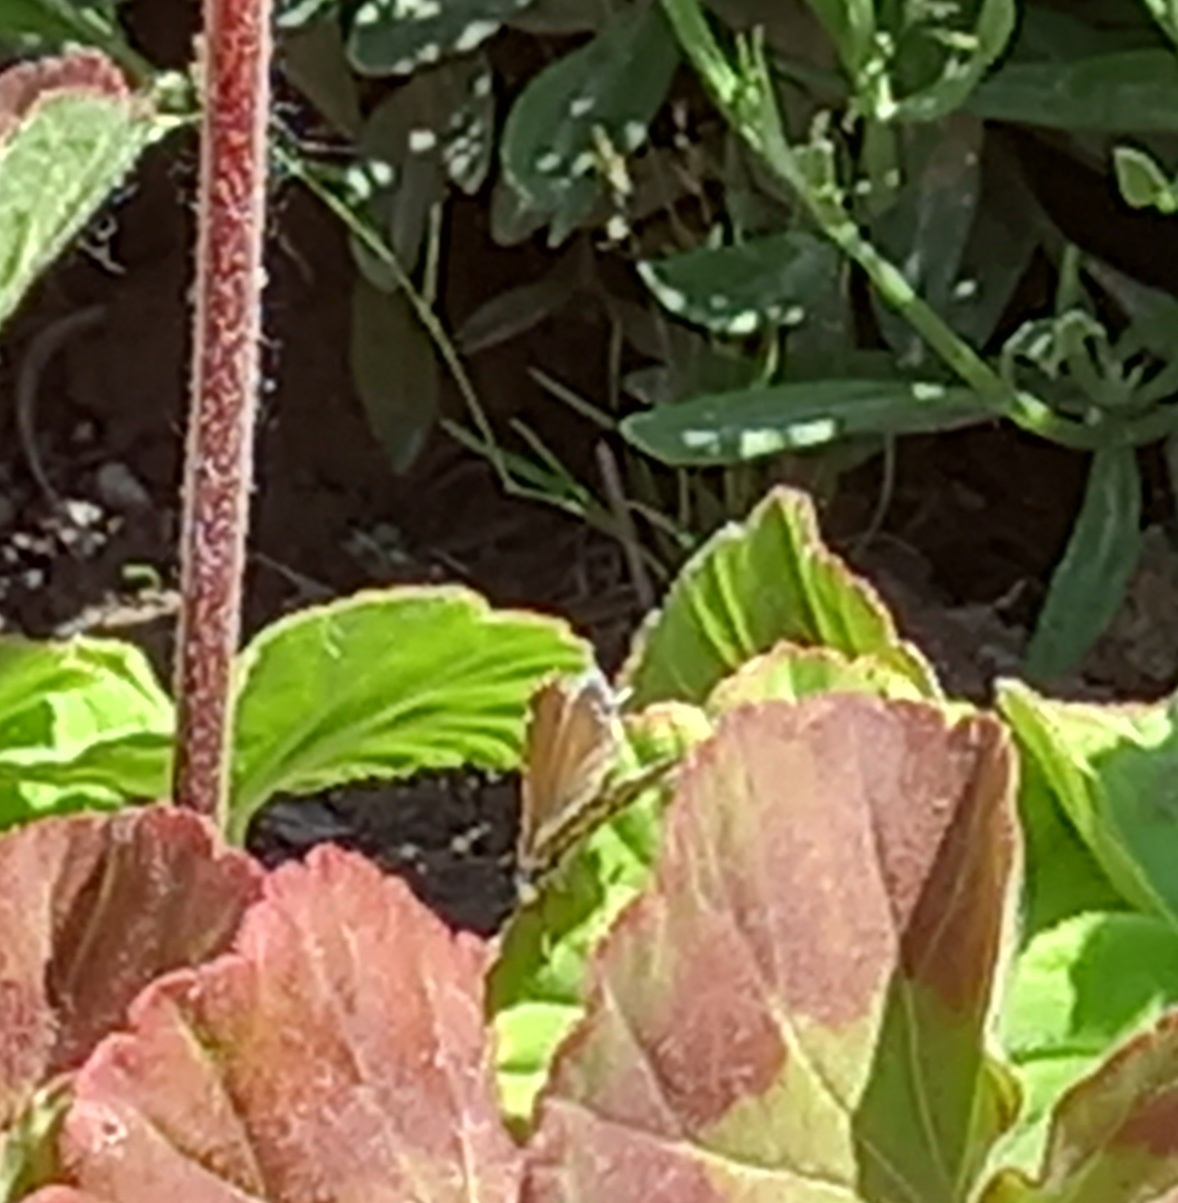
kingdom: Animalia
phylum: Arthropoda
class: Insecta
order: Lepidoptera
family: Lycaenidae
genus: Cacyreus
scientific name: Cacyreus marshalli
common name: Geranium bronze
